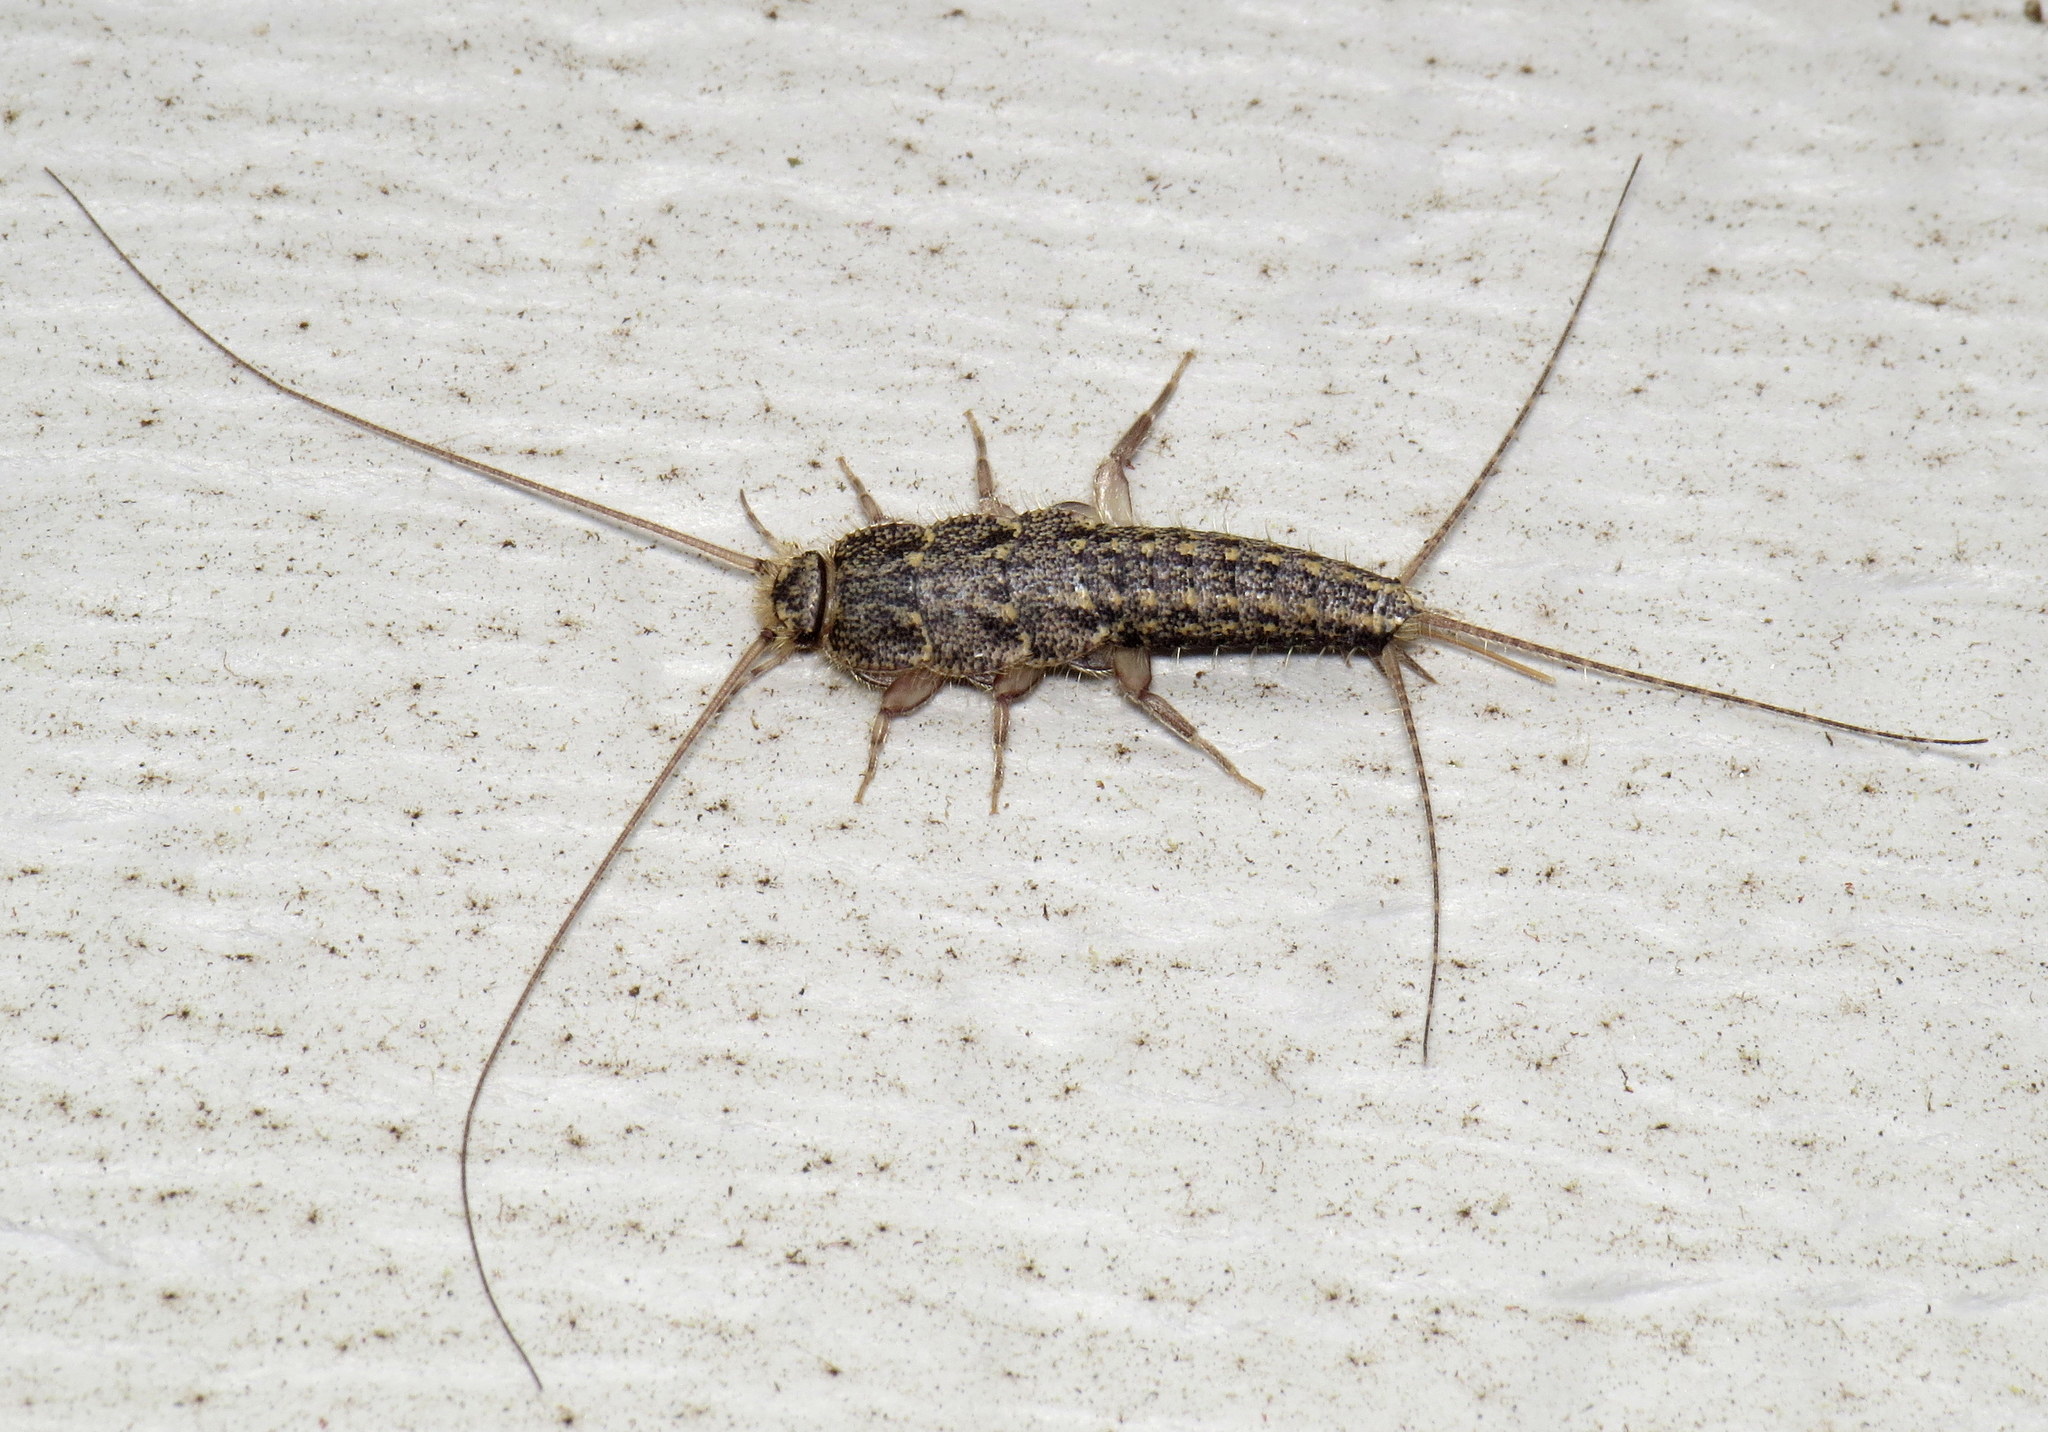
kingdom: Animalia
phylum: Arthropoda
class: Insecta
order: Zygentoma
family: Lepismatidae
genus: Ctenolepisma
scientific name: Ctenolepisma lineata
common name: Four-lined silverfish
